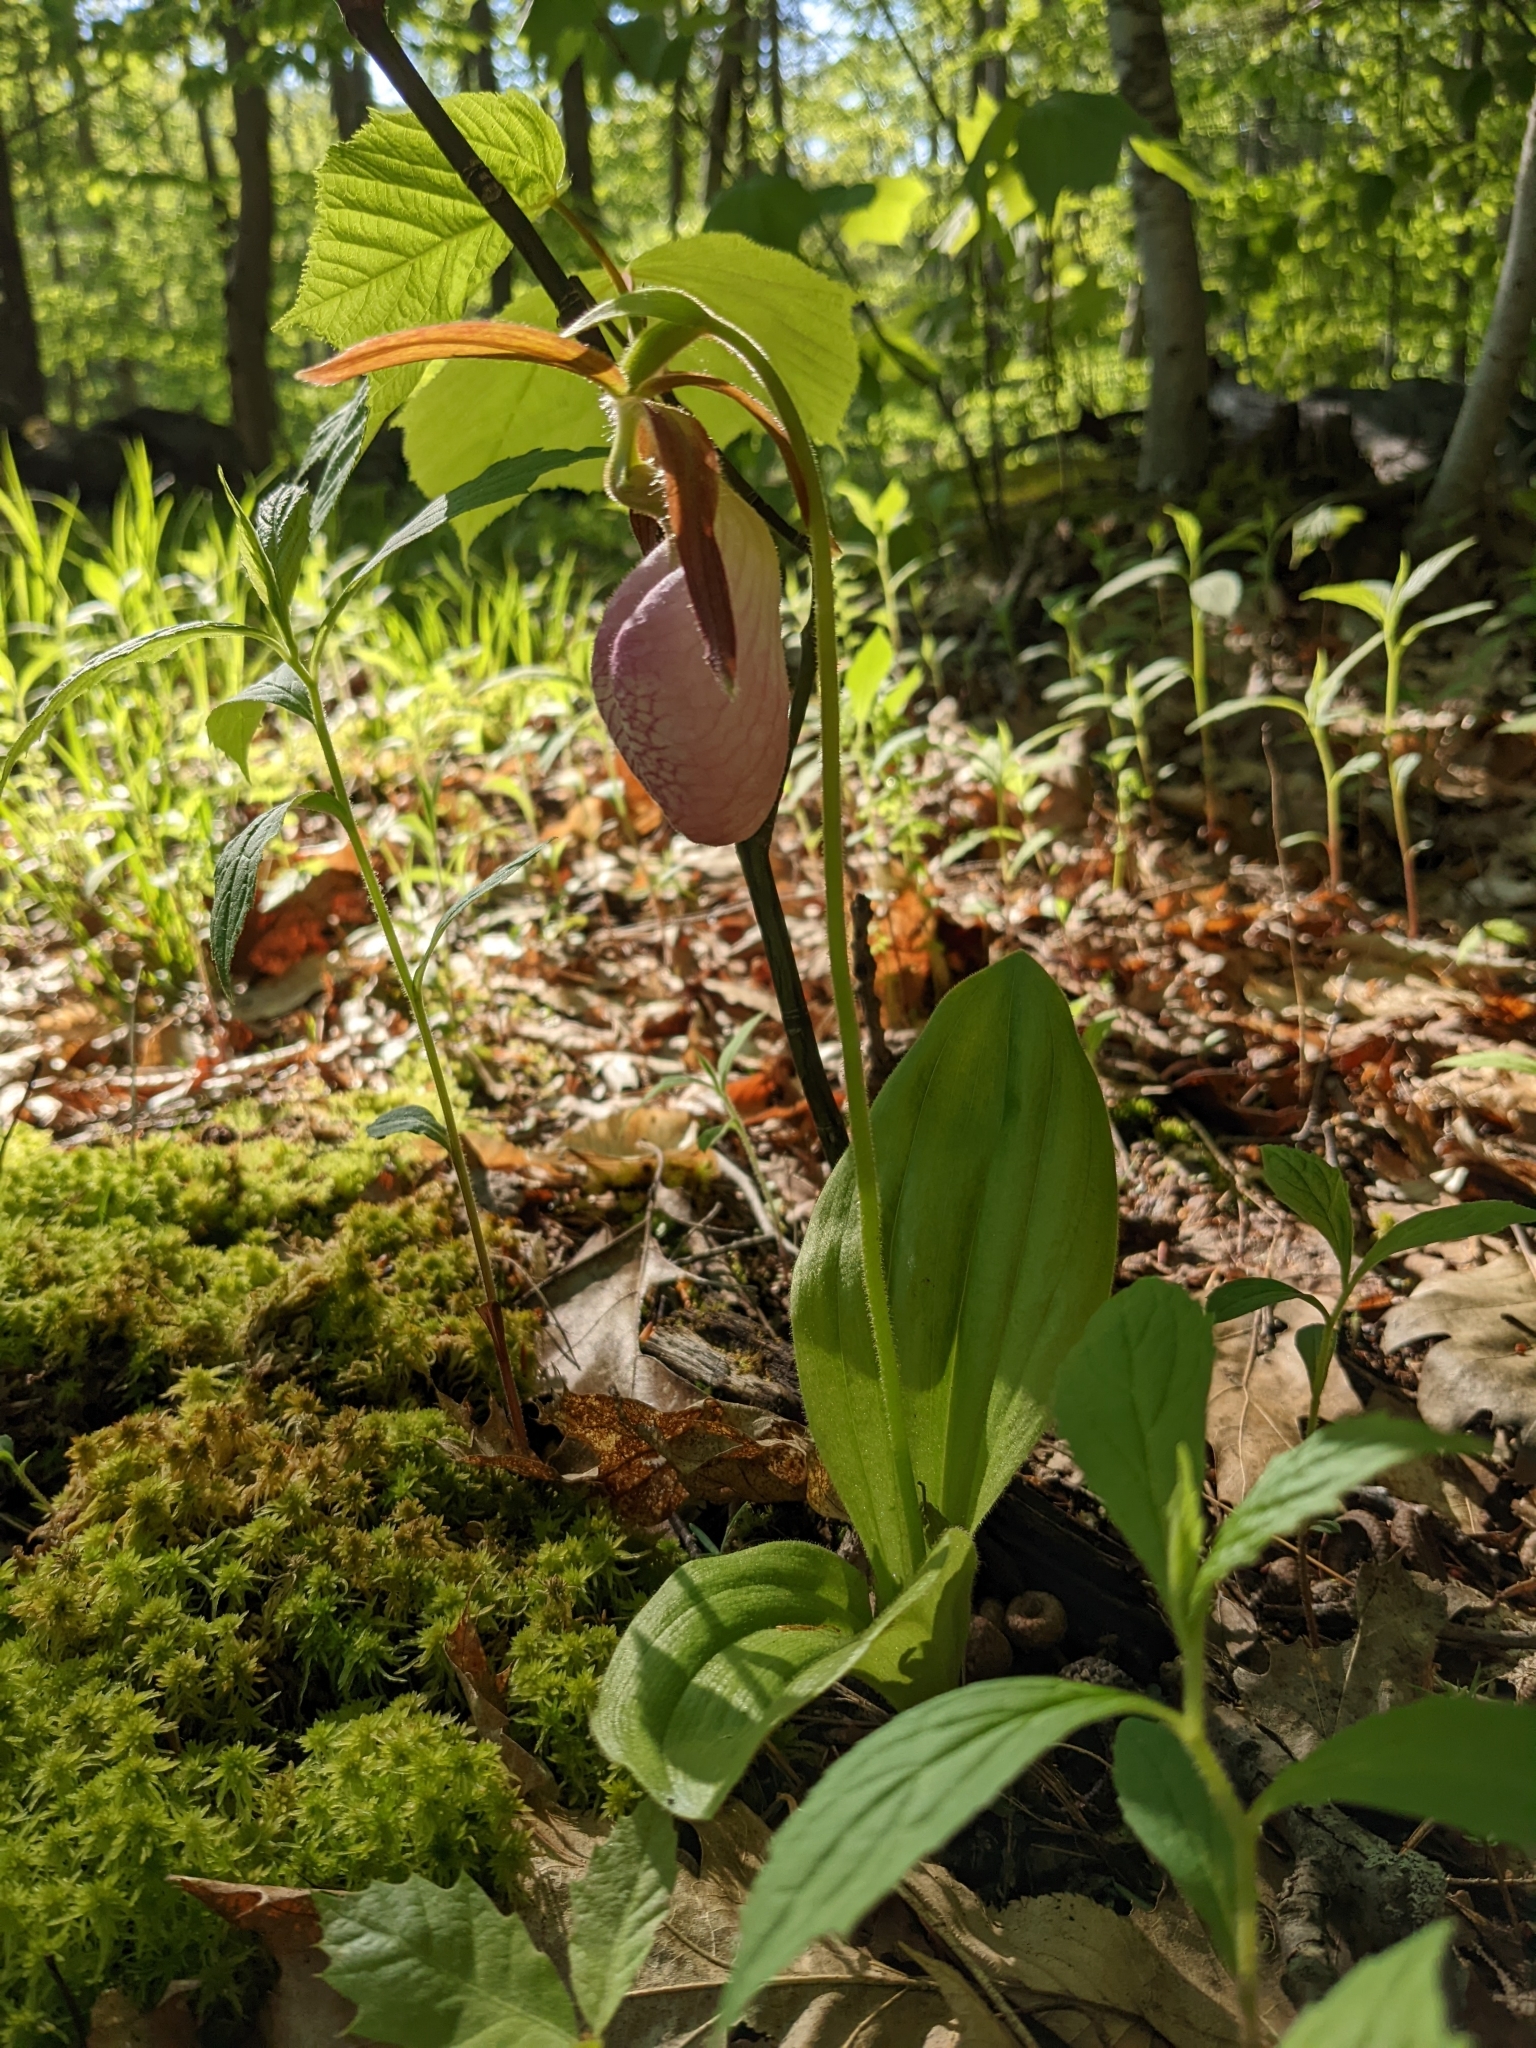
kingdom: Plantae
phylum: Tracheophyta
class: Liliopsida
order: Asparagales
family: Orchidaceae
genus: Cypripedium
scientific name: Cypripedium acaule
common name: Pink lady's-slipper
